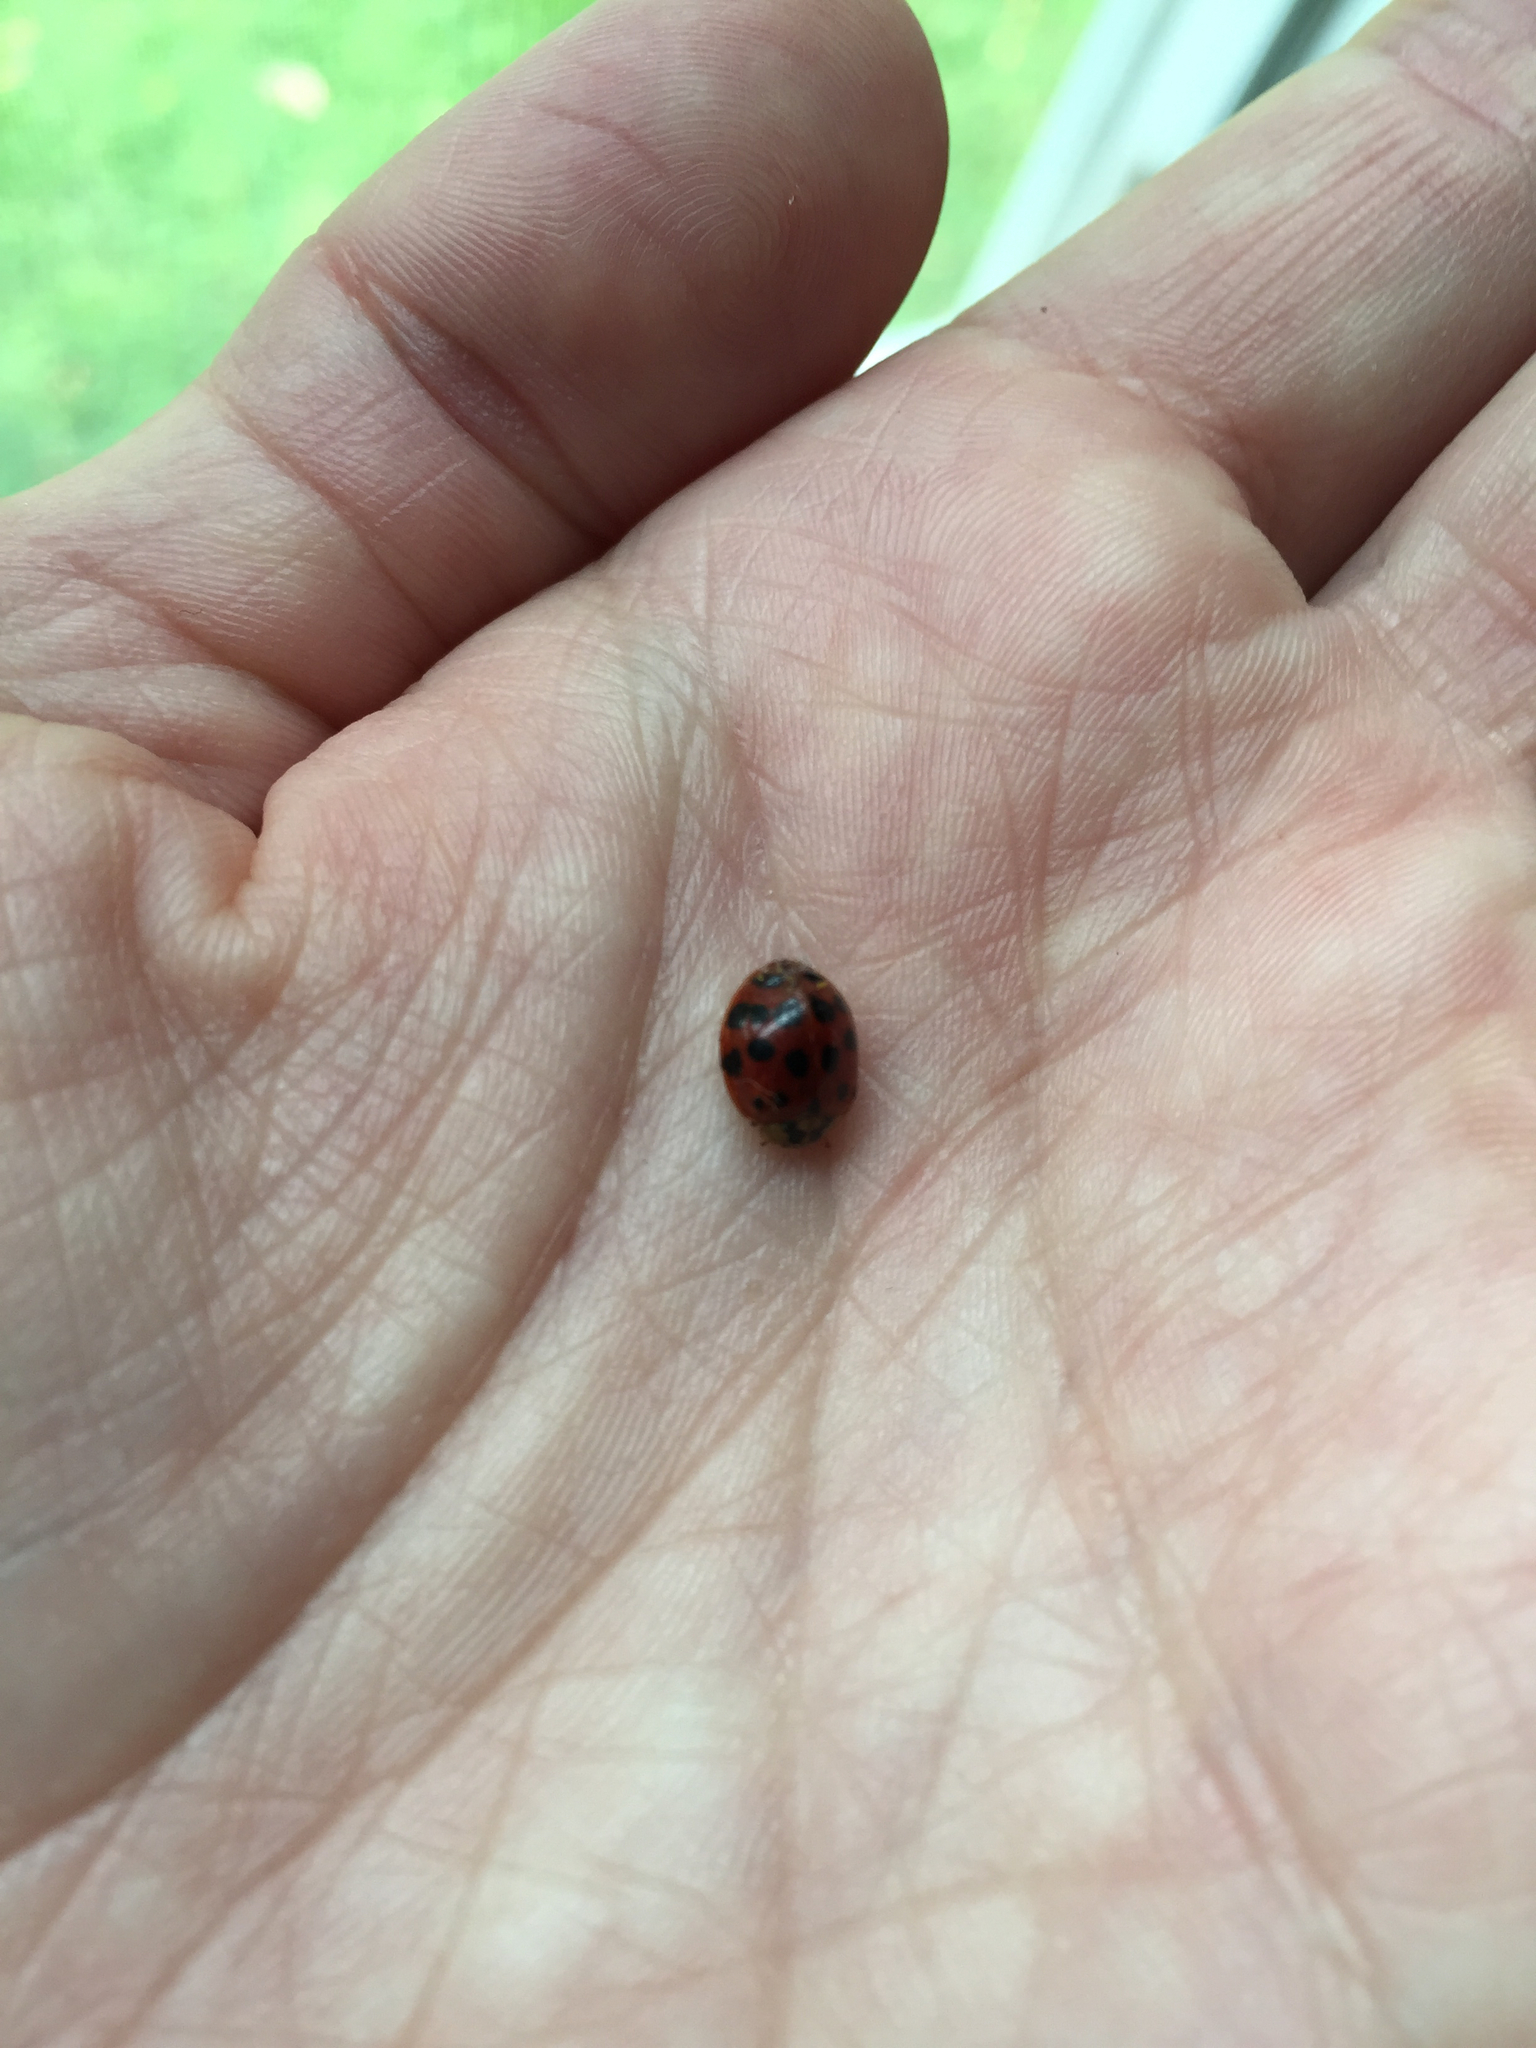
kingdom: Animalia
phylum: Arthropoda
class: Insecta
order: Coleoptera
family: Coccinellidae
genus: Harmonia
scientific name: Harmonia axyridis
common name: Harlequin ladybird
